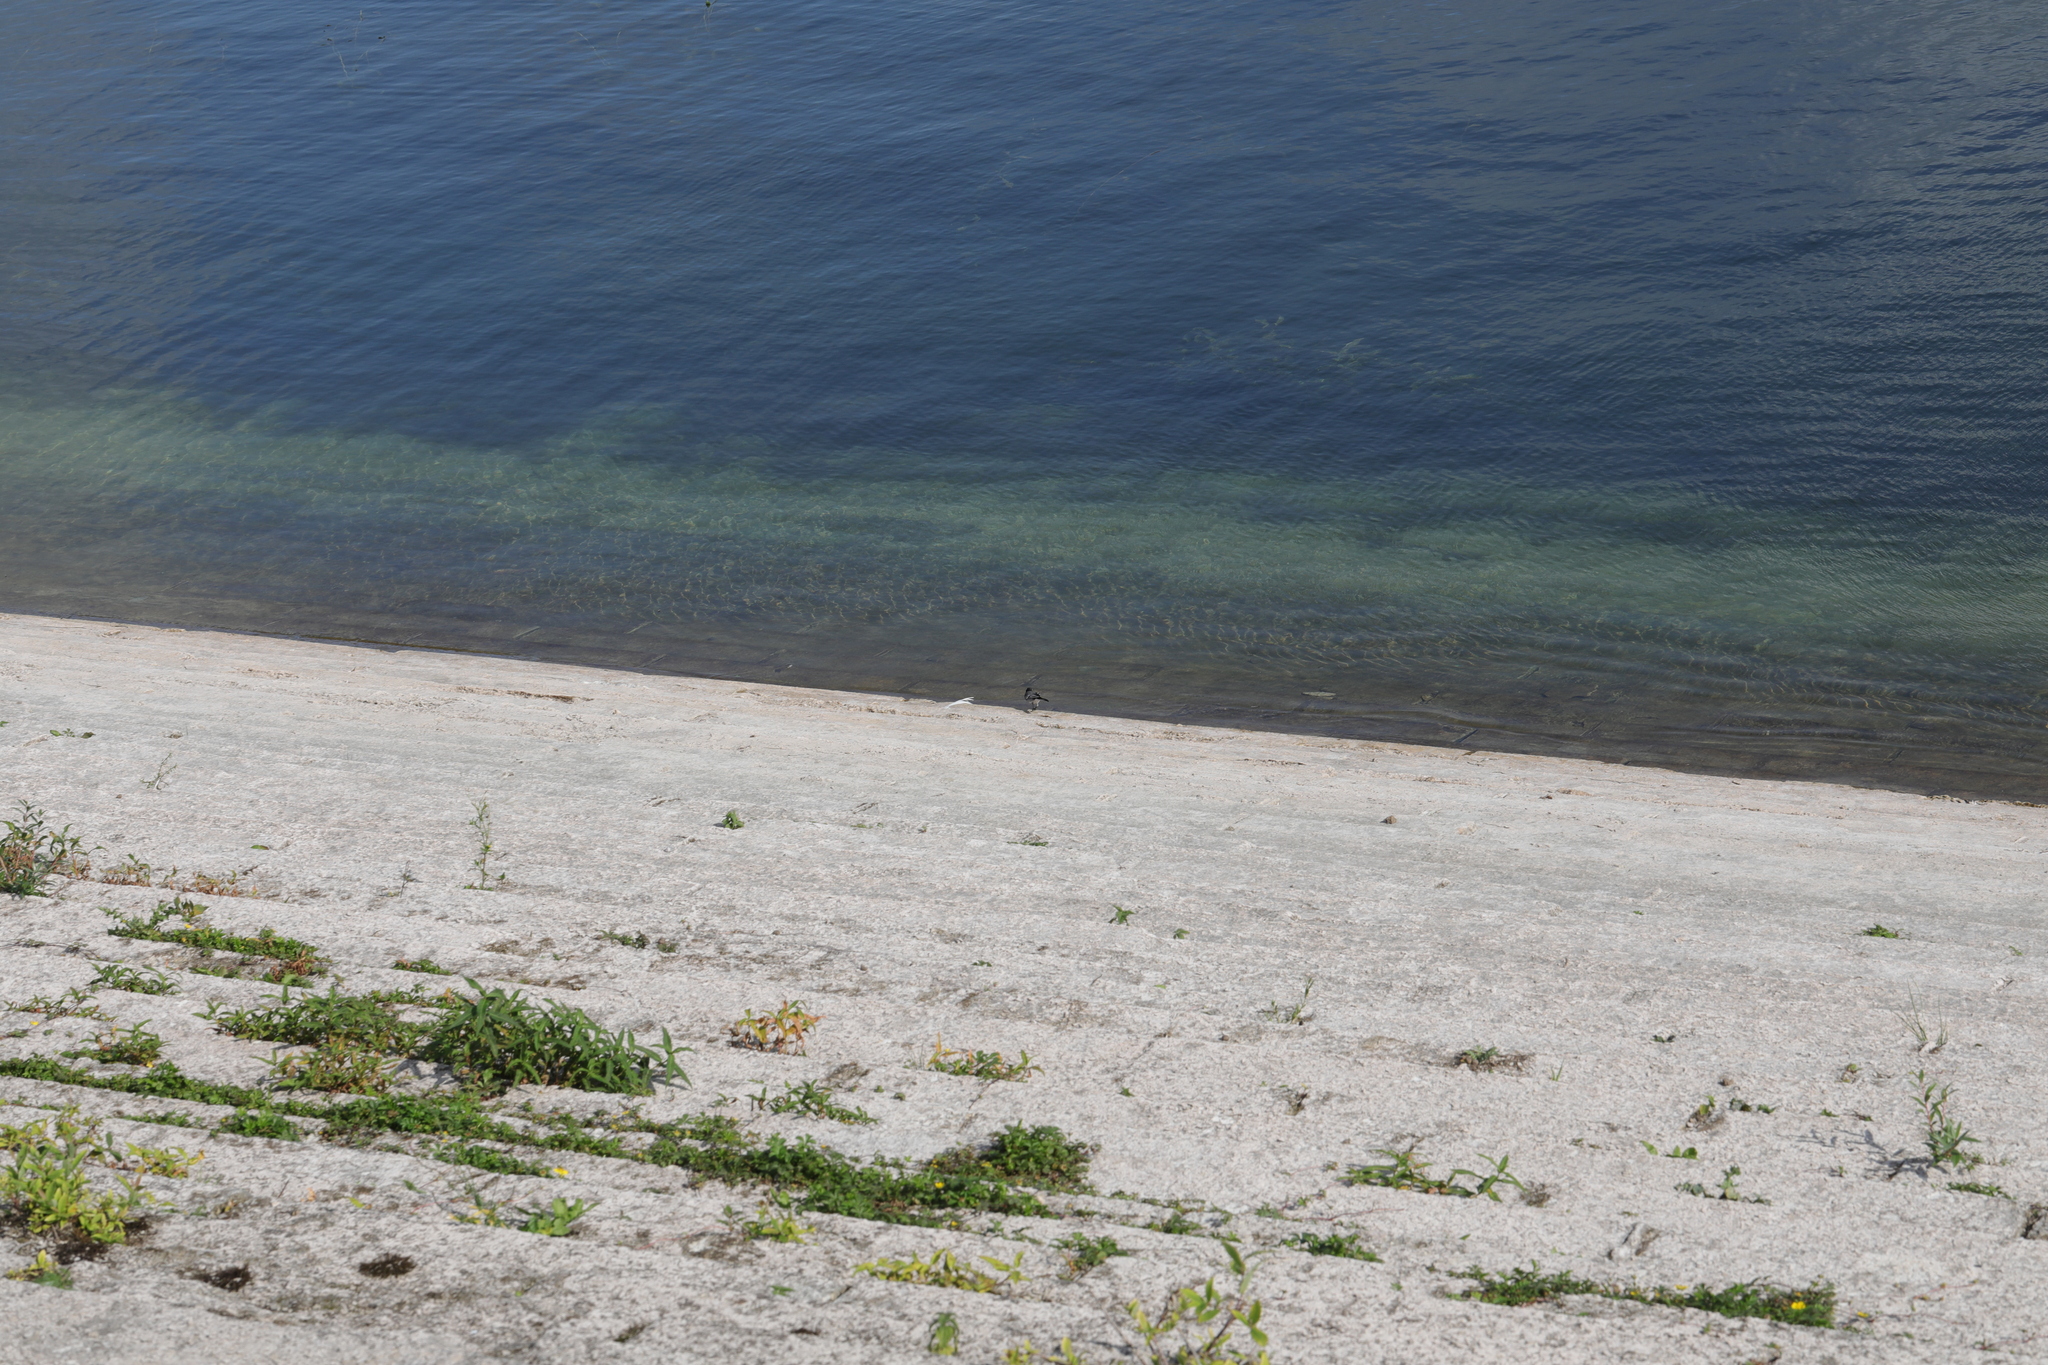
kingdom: Animalia
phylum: Chordata
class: Aves
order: Passeriformes
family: Motacillidae
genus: Motacilla
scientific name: Motacilla alba
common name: White wagtail
